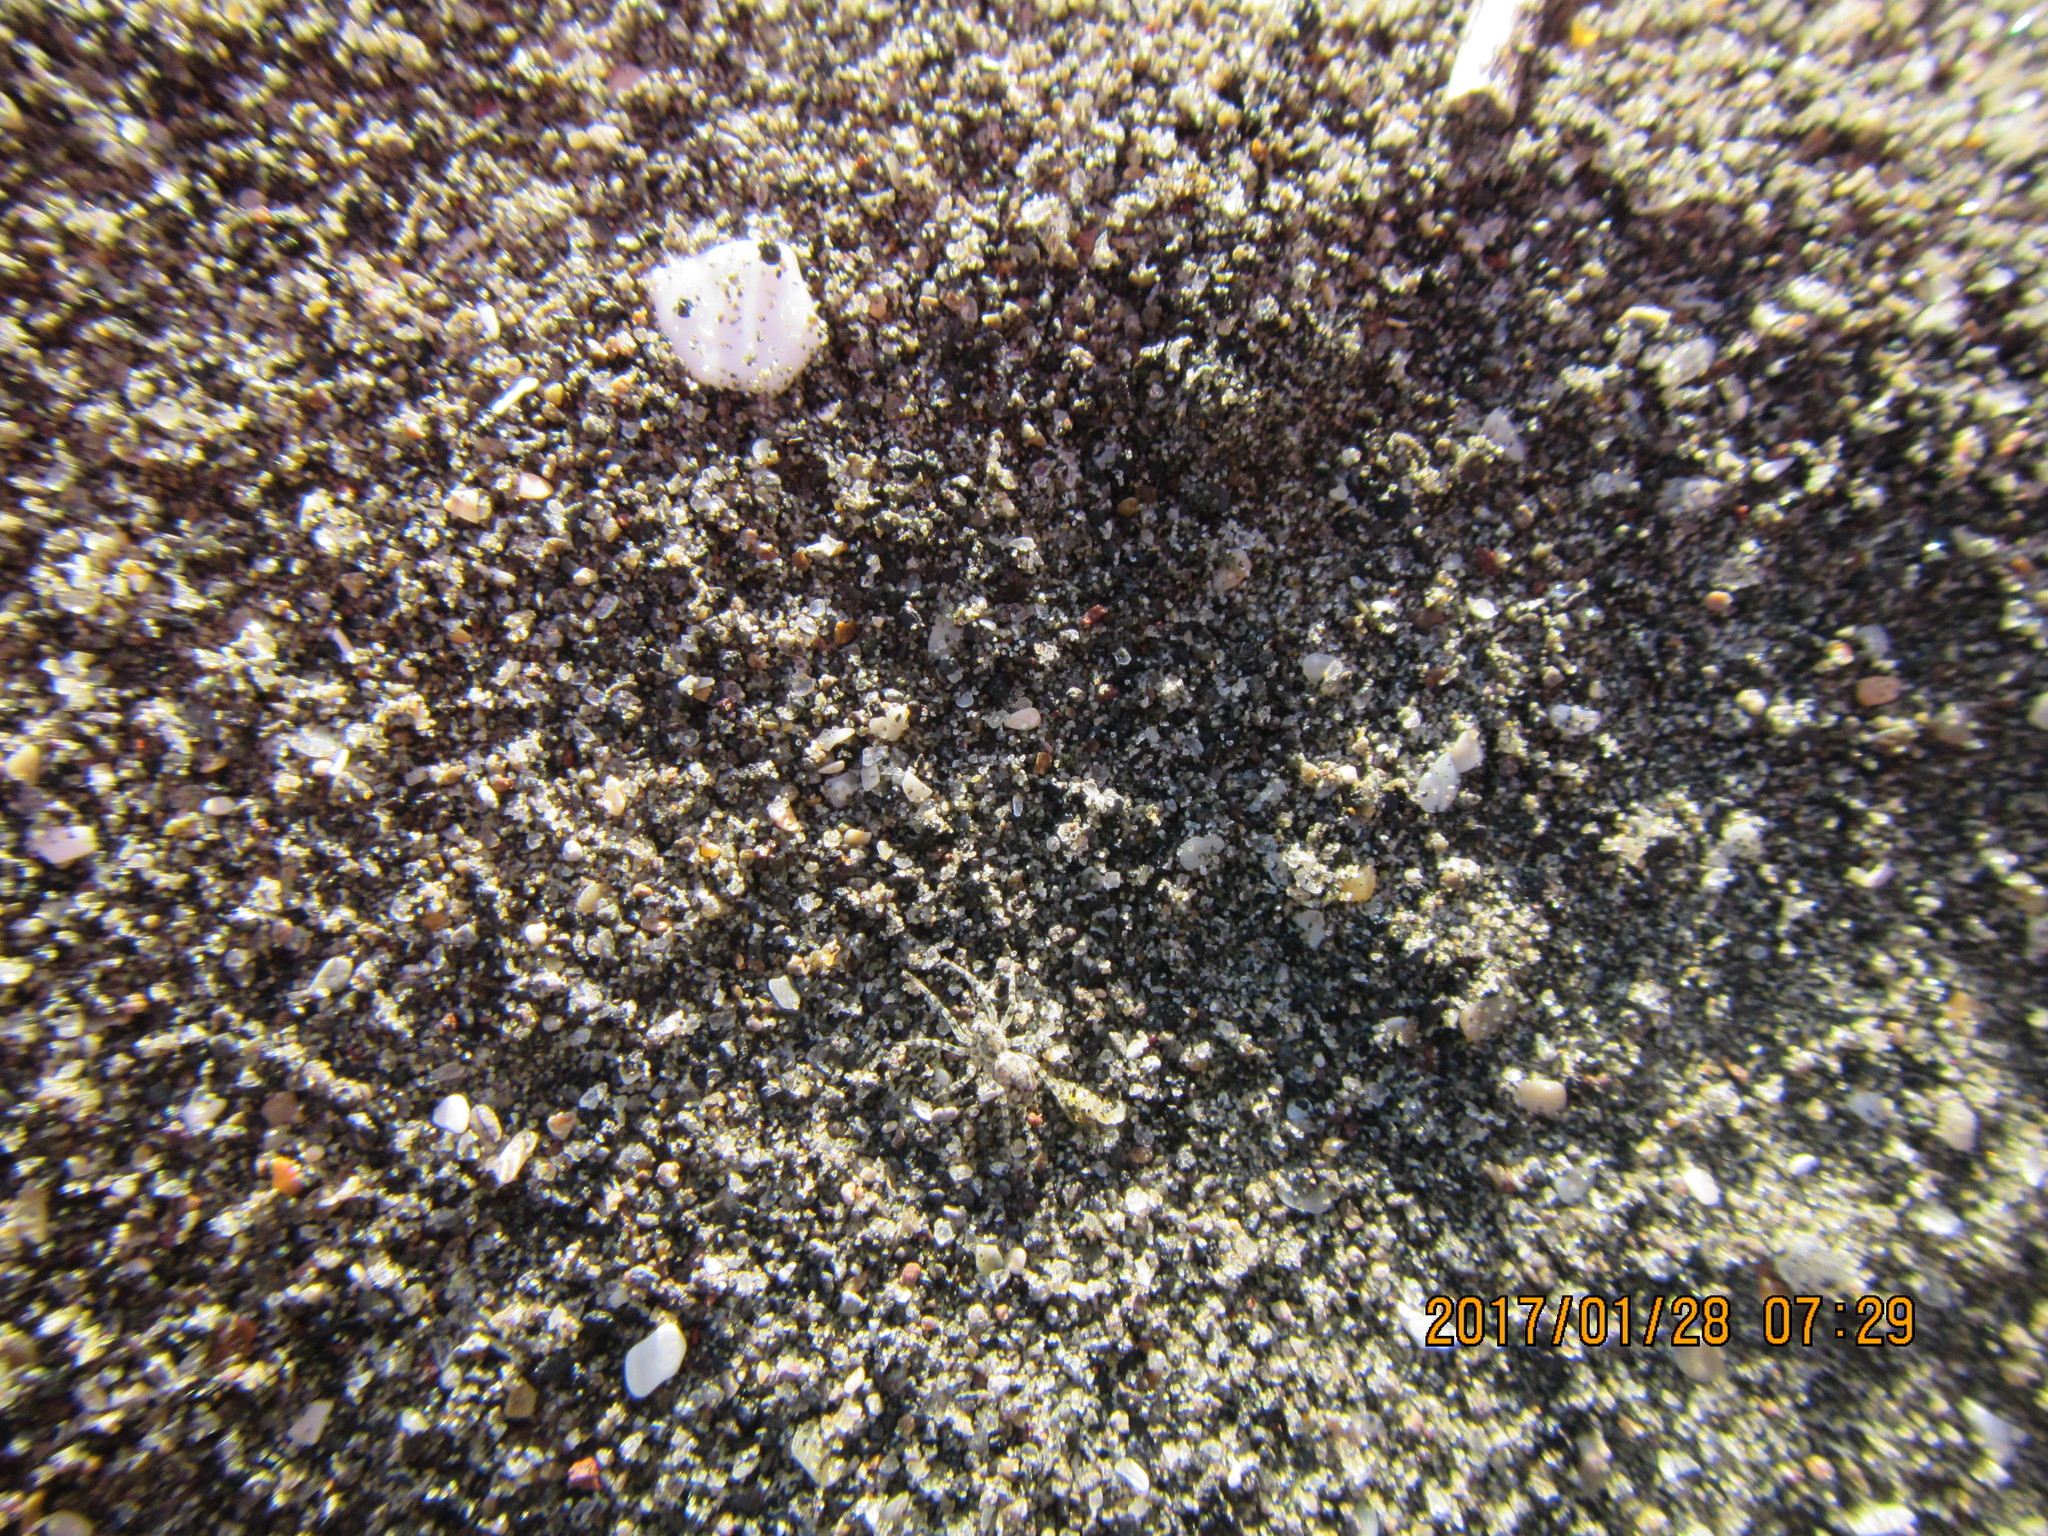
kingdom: Animalia
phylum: Arthropoda
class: Arachnida
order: Araneae
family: Lycosidae
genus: Anoteropsis
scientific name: Anoteropsis litoralis
